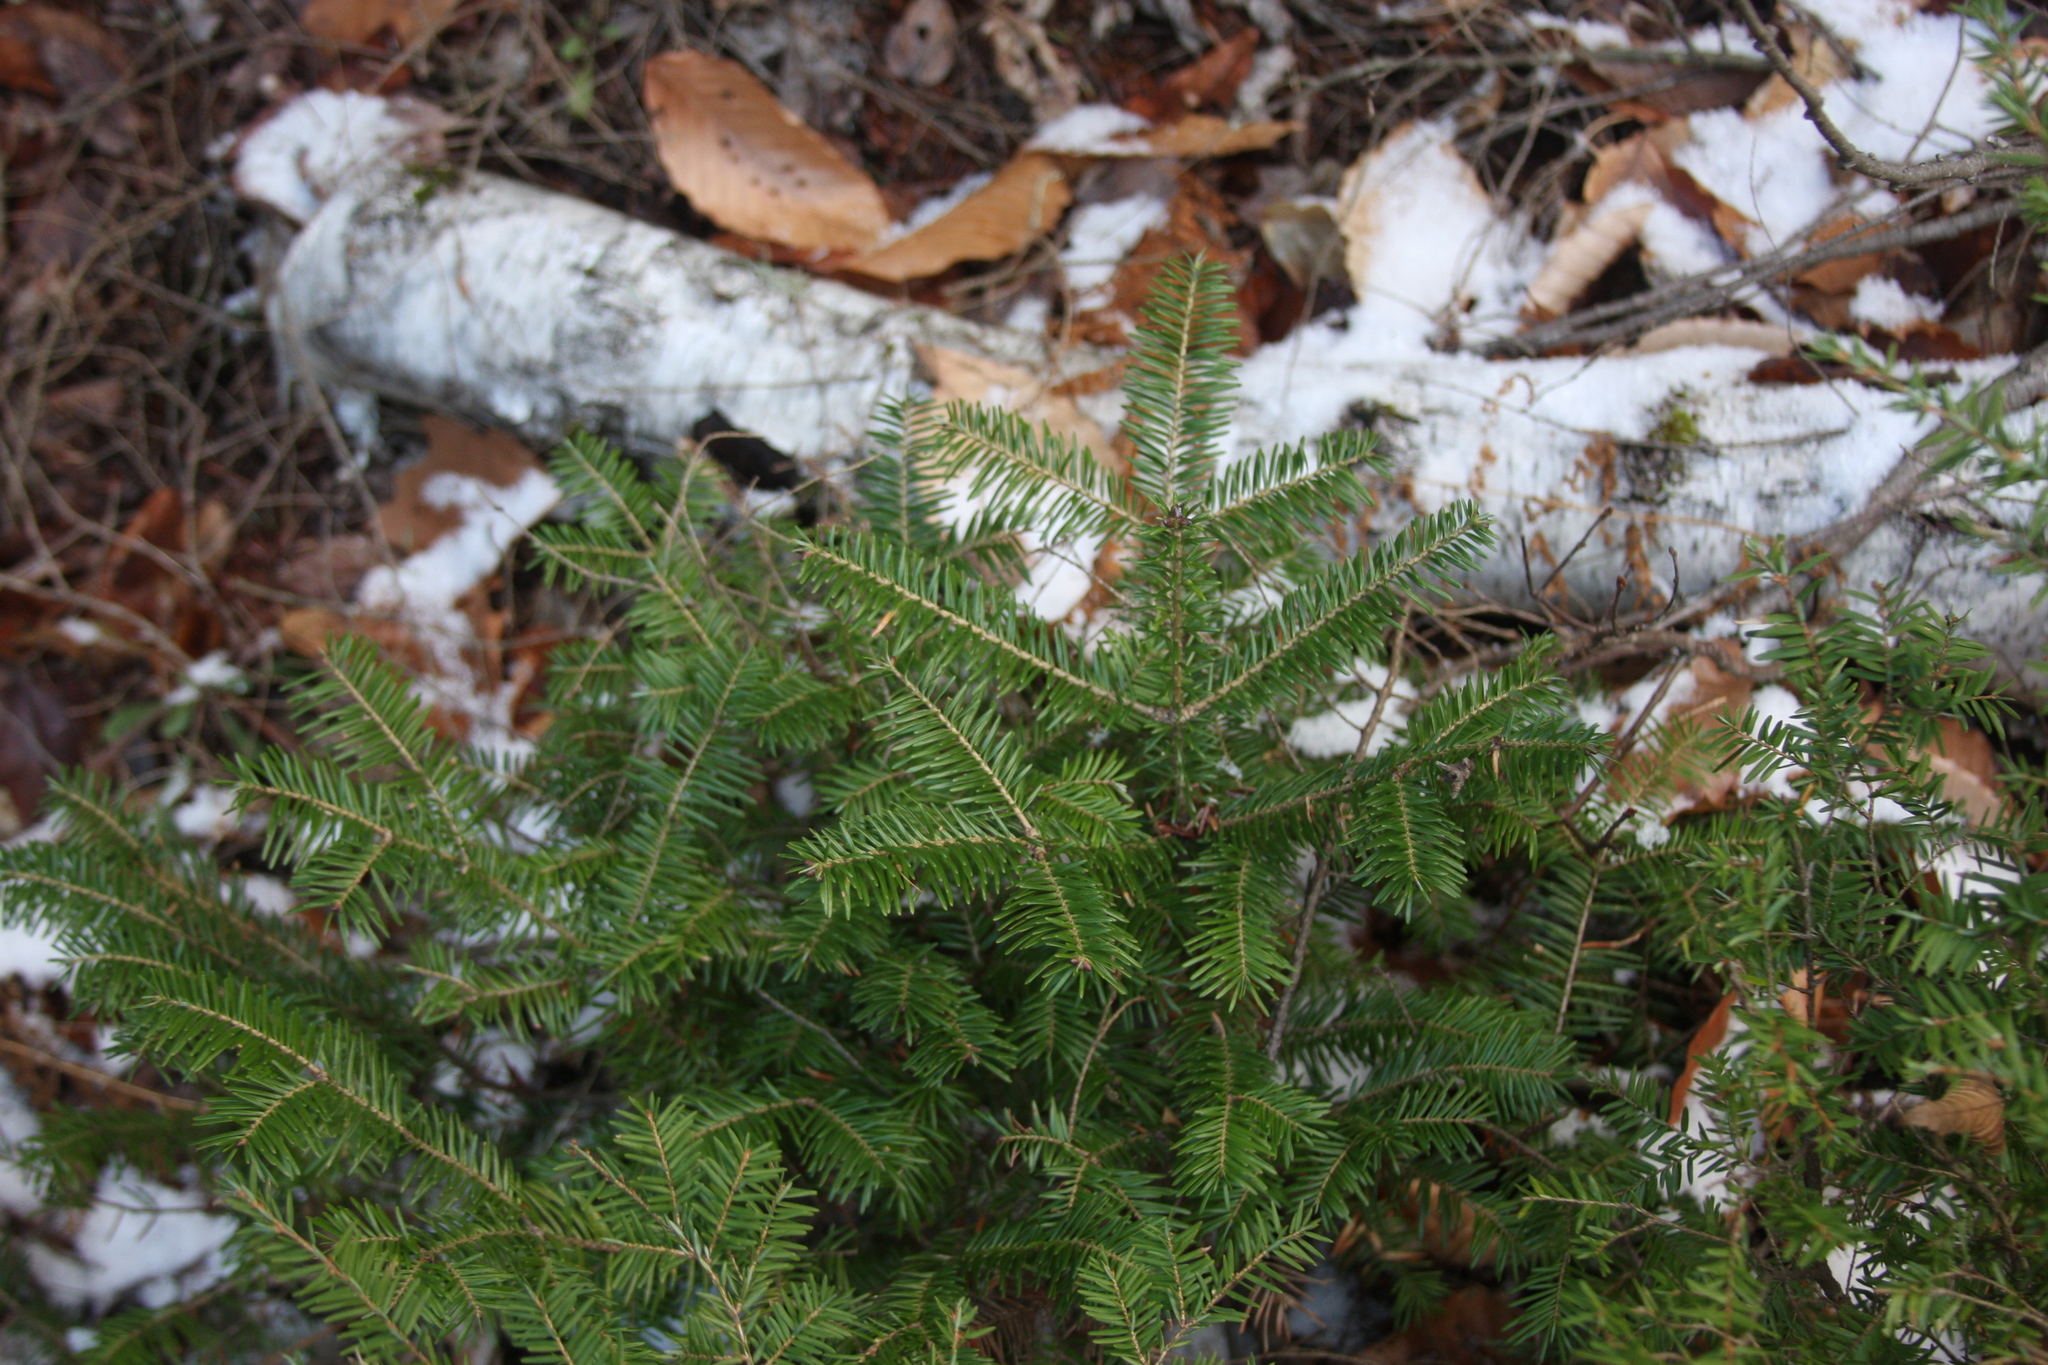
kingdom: Plantae
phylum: Tracheophyta
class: Pinopsida
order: Pinales
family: Pinaceae
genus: Abies
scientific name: Abies balsamea
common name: Balsam fir
